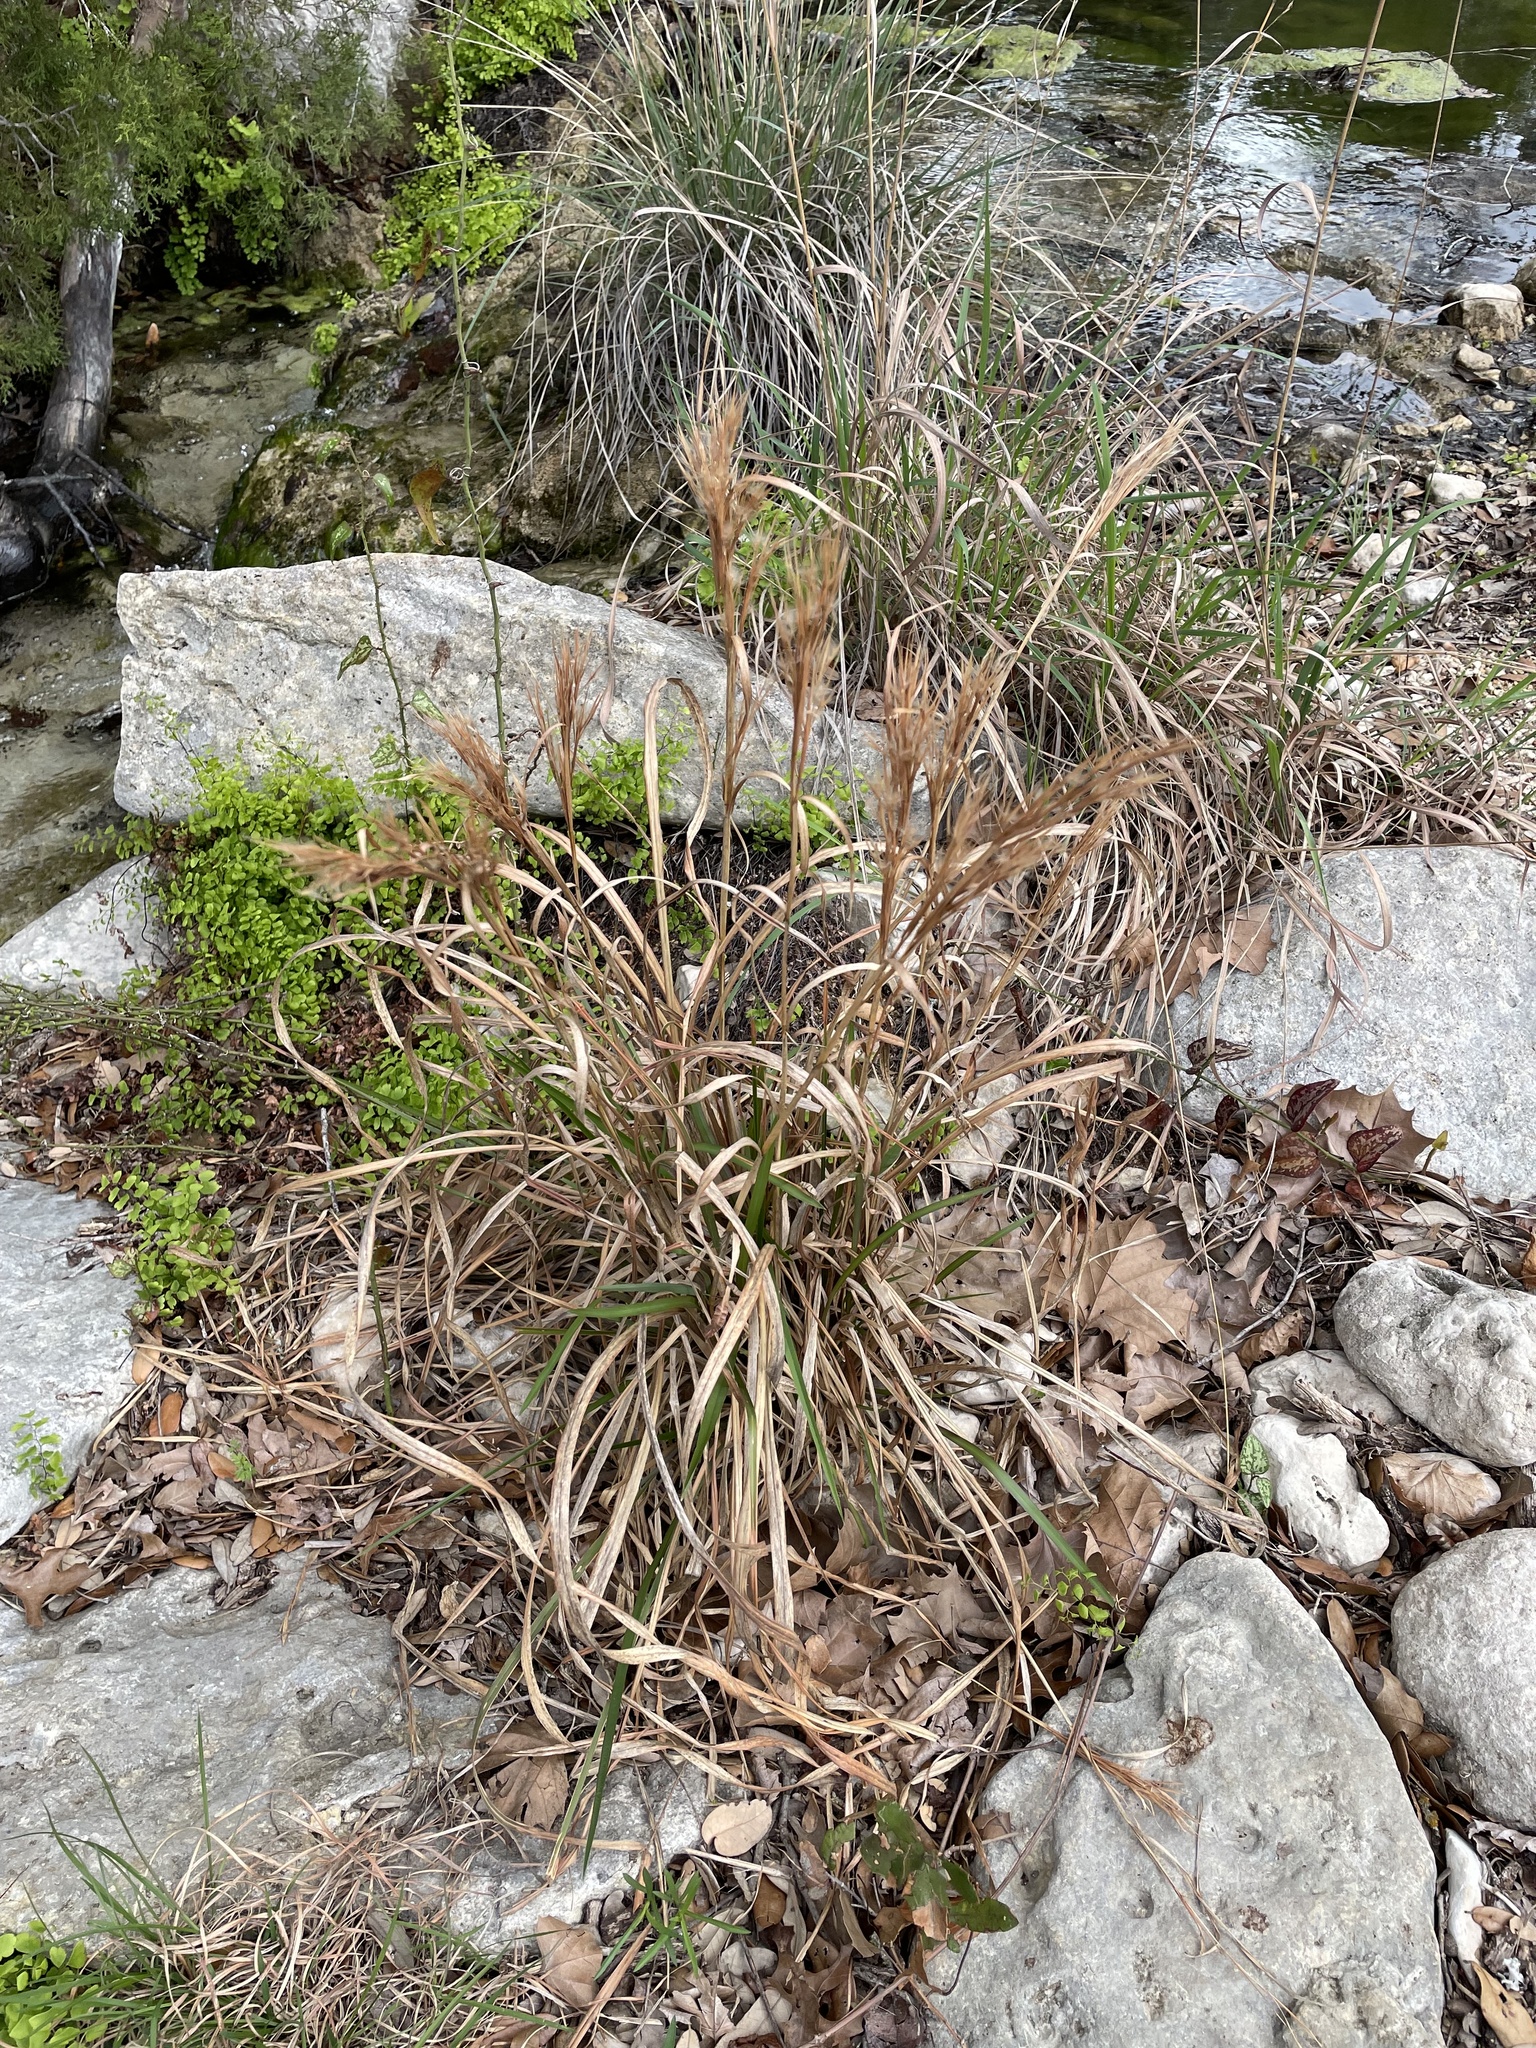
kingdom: Plantae
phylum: Tracheophyta
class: Liliopsida
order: Poales
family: Poaceae
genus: Andropogon
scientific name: Andropogon tenuispatheus
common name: Bushy bluestem
